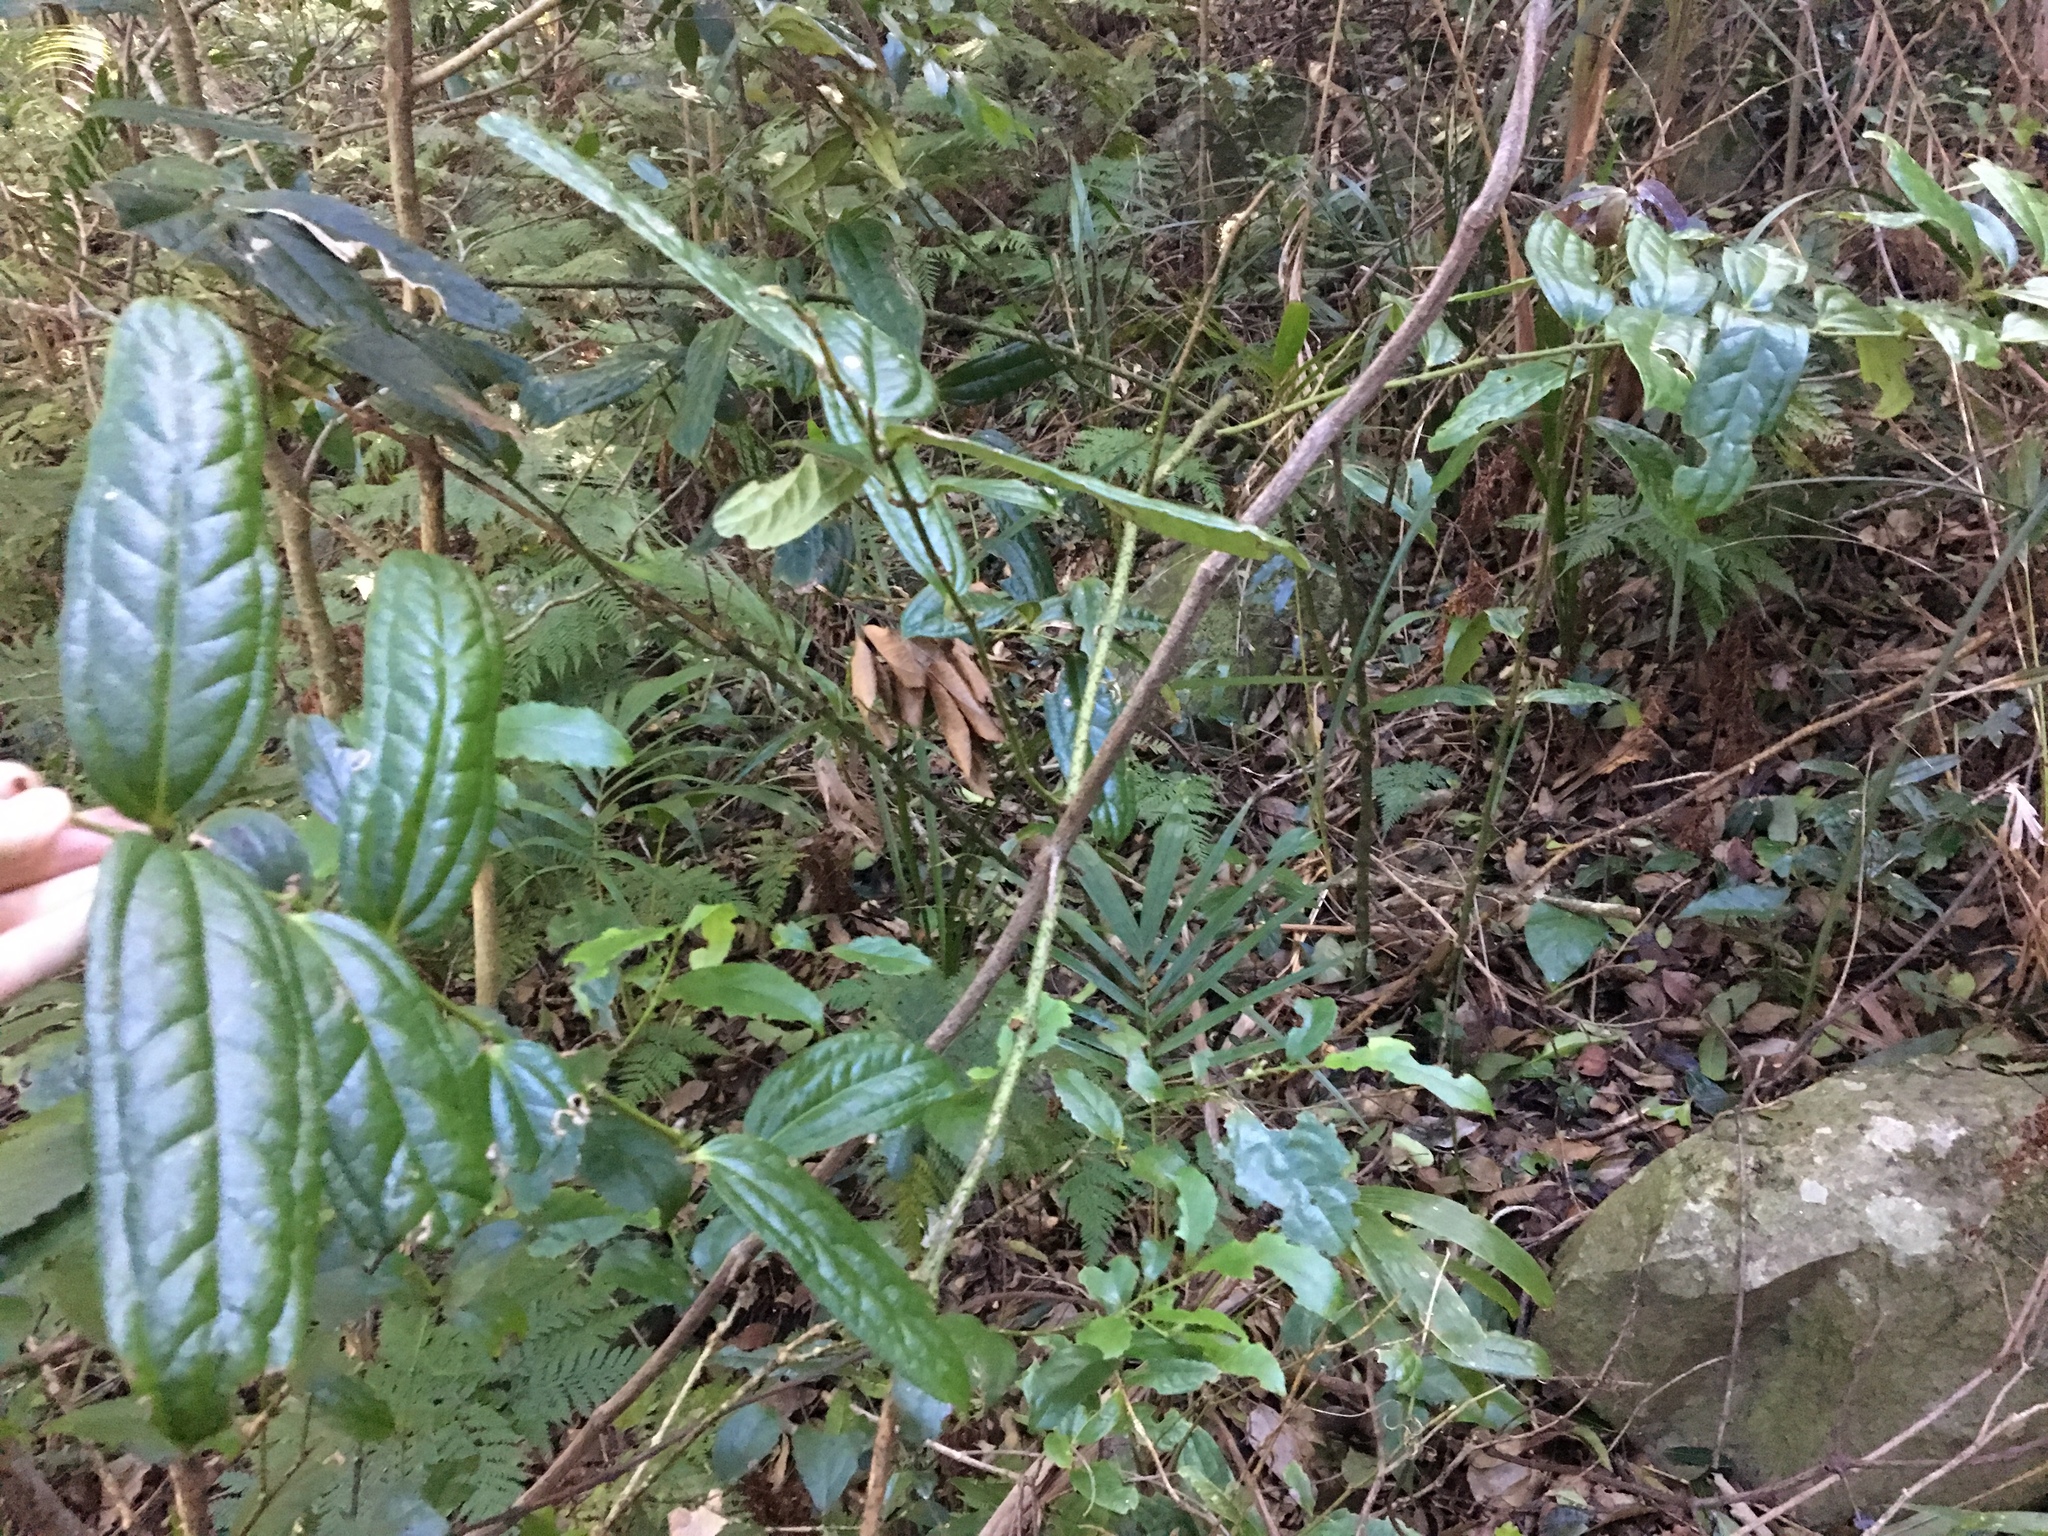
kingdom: Plantae
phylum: Tracheophyta
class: Liliopsida
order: Liliales
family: Ripogonaceae
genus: Ripogonum
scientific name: Ripogonum discolor
